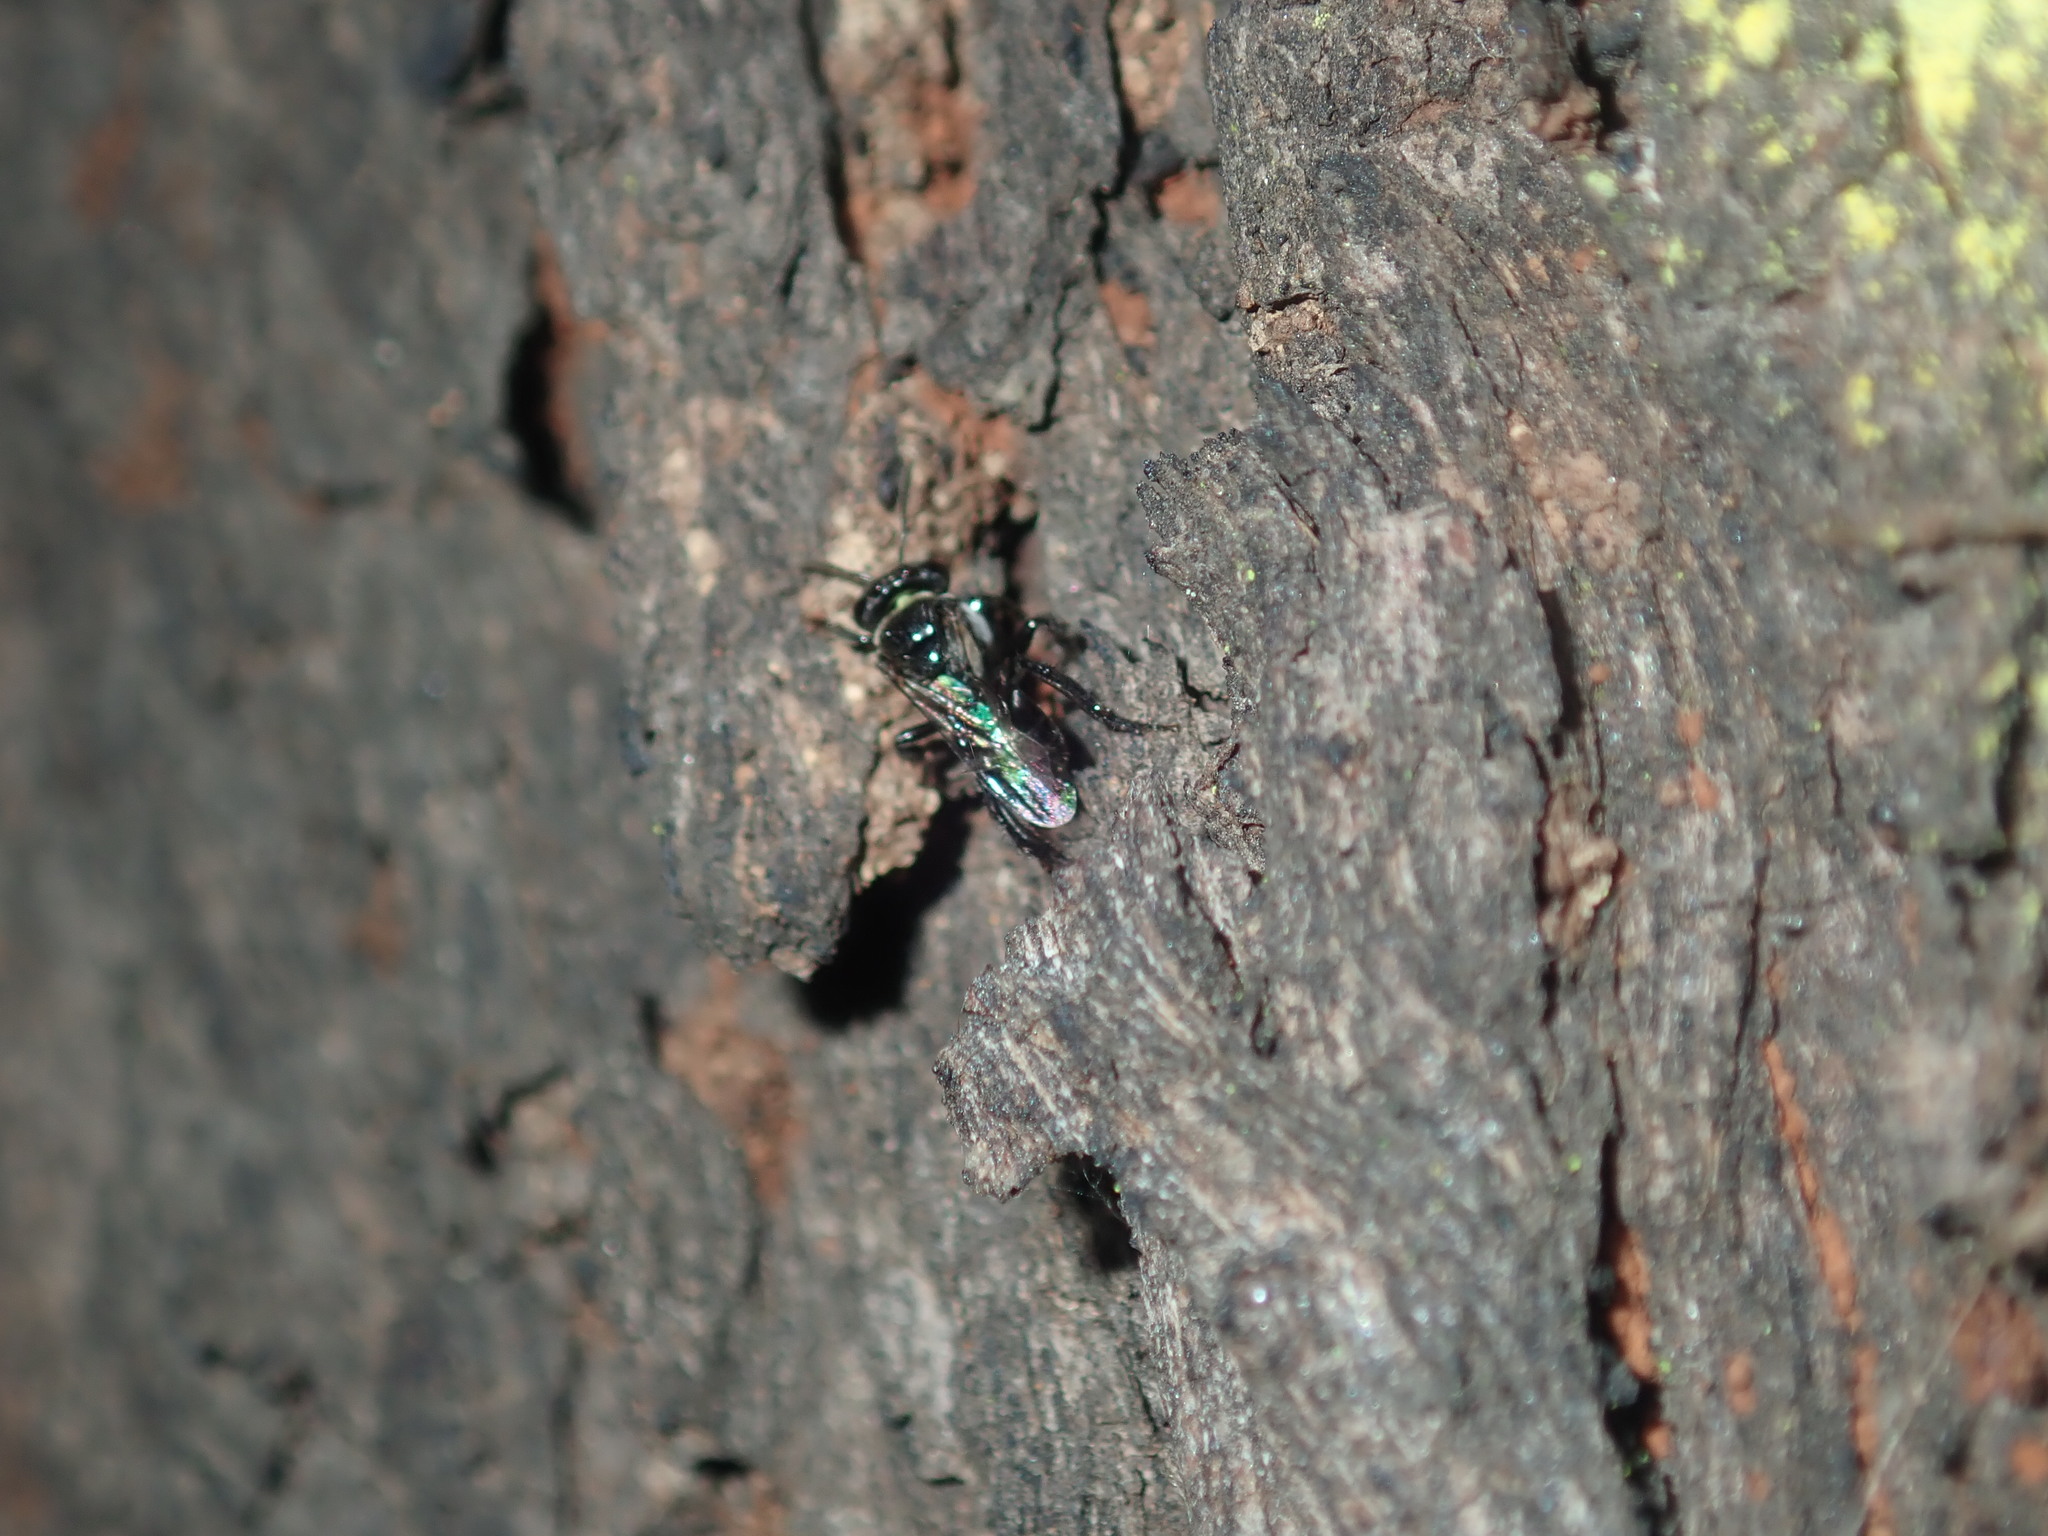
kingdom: Animalia
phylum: Arthropoda
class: Insecta
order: Hymenoptera
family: Apidae
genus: Tetragonula
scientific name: Tetragonula carbonaria
